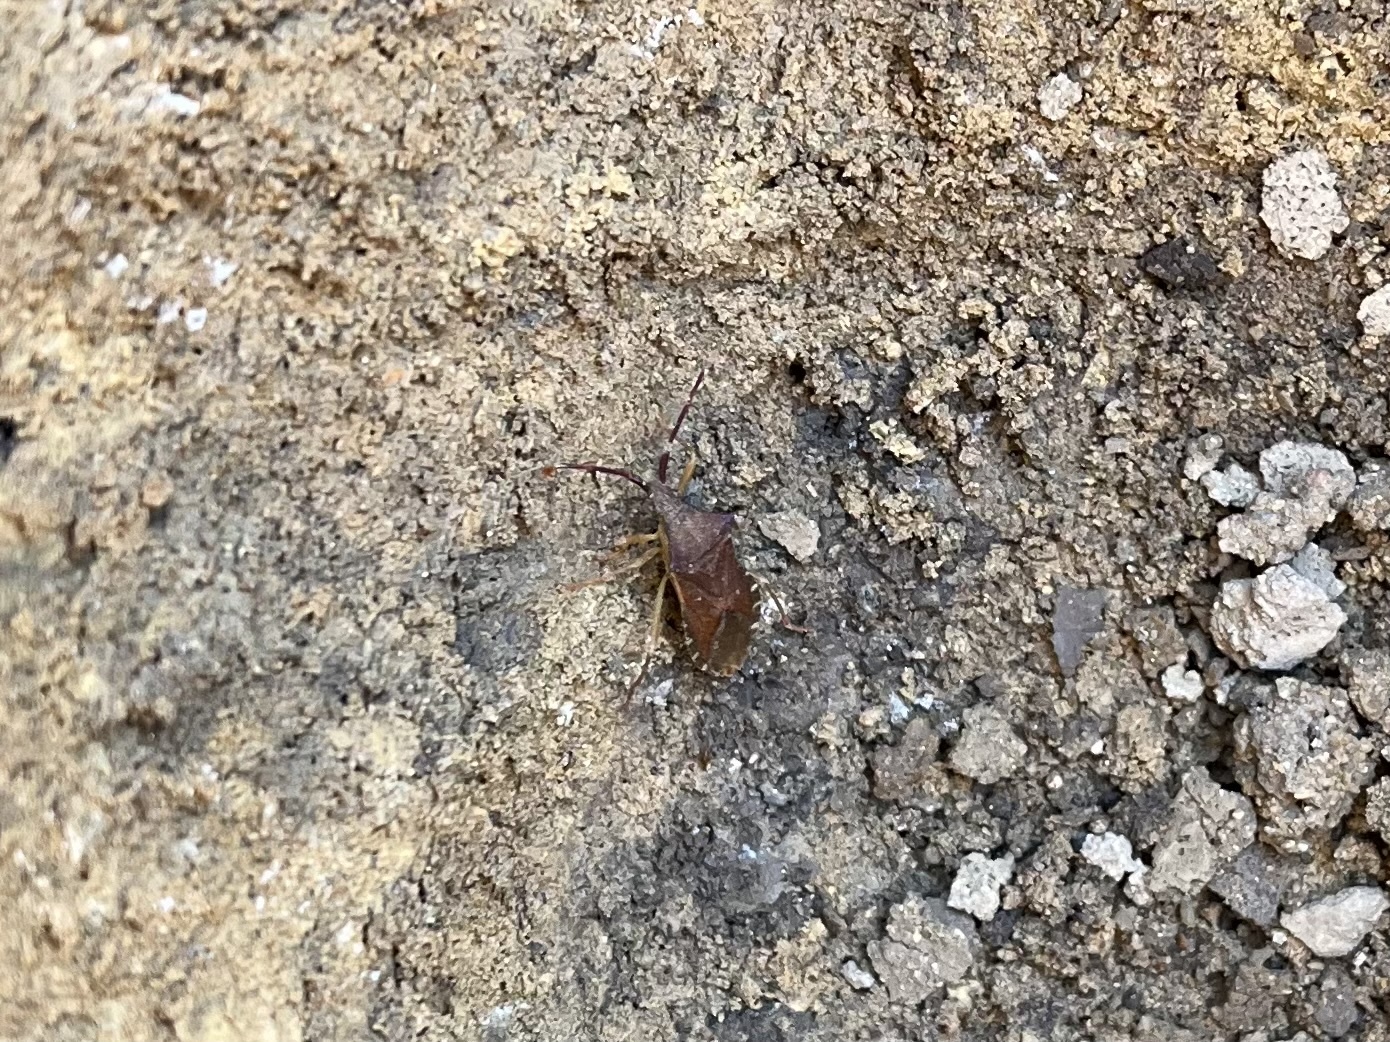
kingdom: Animalia
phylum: Arthropoda
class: Insecta
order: Hemiptera
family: Coreidae
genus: Gonocerus
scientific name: Gonocerus acuteangulatus
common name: Box bug
